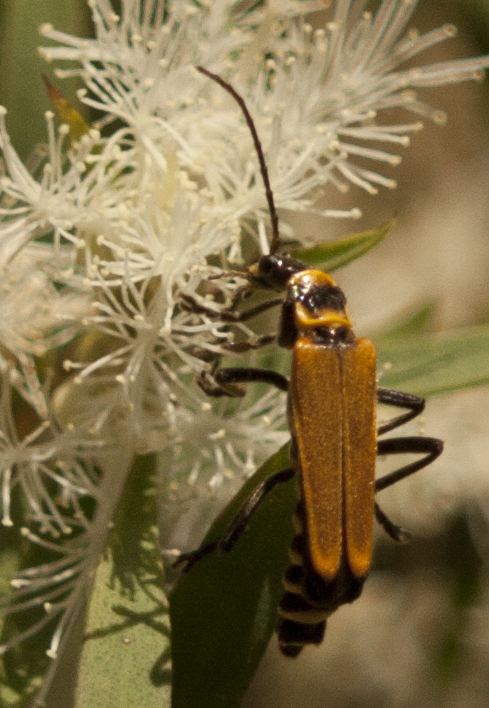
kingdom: Animalia
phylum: Arthropoda
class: Insecta
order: Coleoptera
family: Cantharidae
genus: Chauliognathus
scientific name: Chauliognathus
